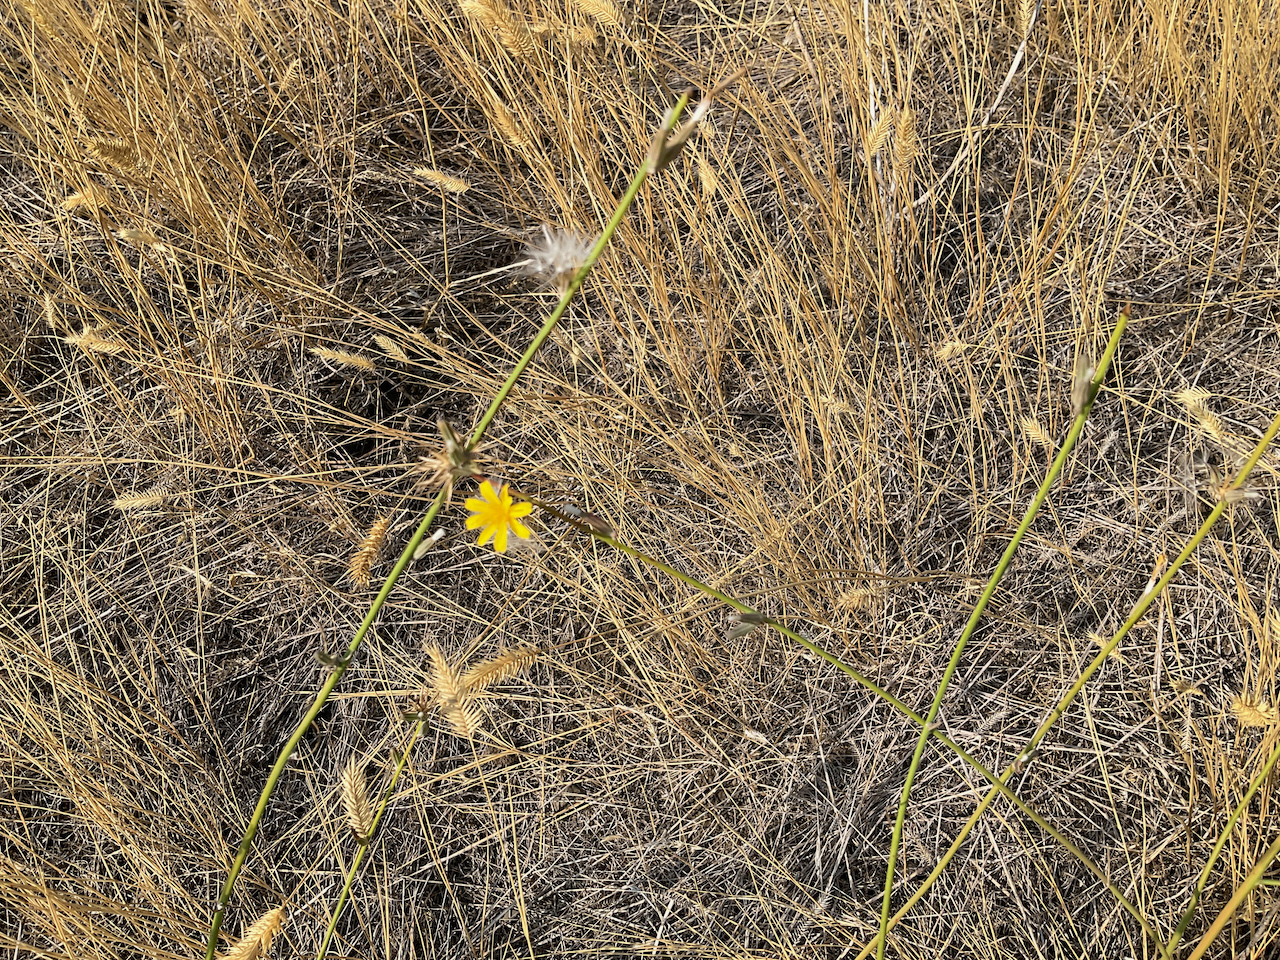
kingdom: Plantae
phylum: Tracheophyta
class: Magnoliopsida
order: Asterales
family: Asteraceae
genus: Chondrilla
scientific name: Chondrilla juncea
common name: Skeleton weed
